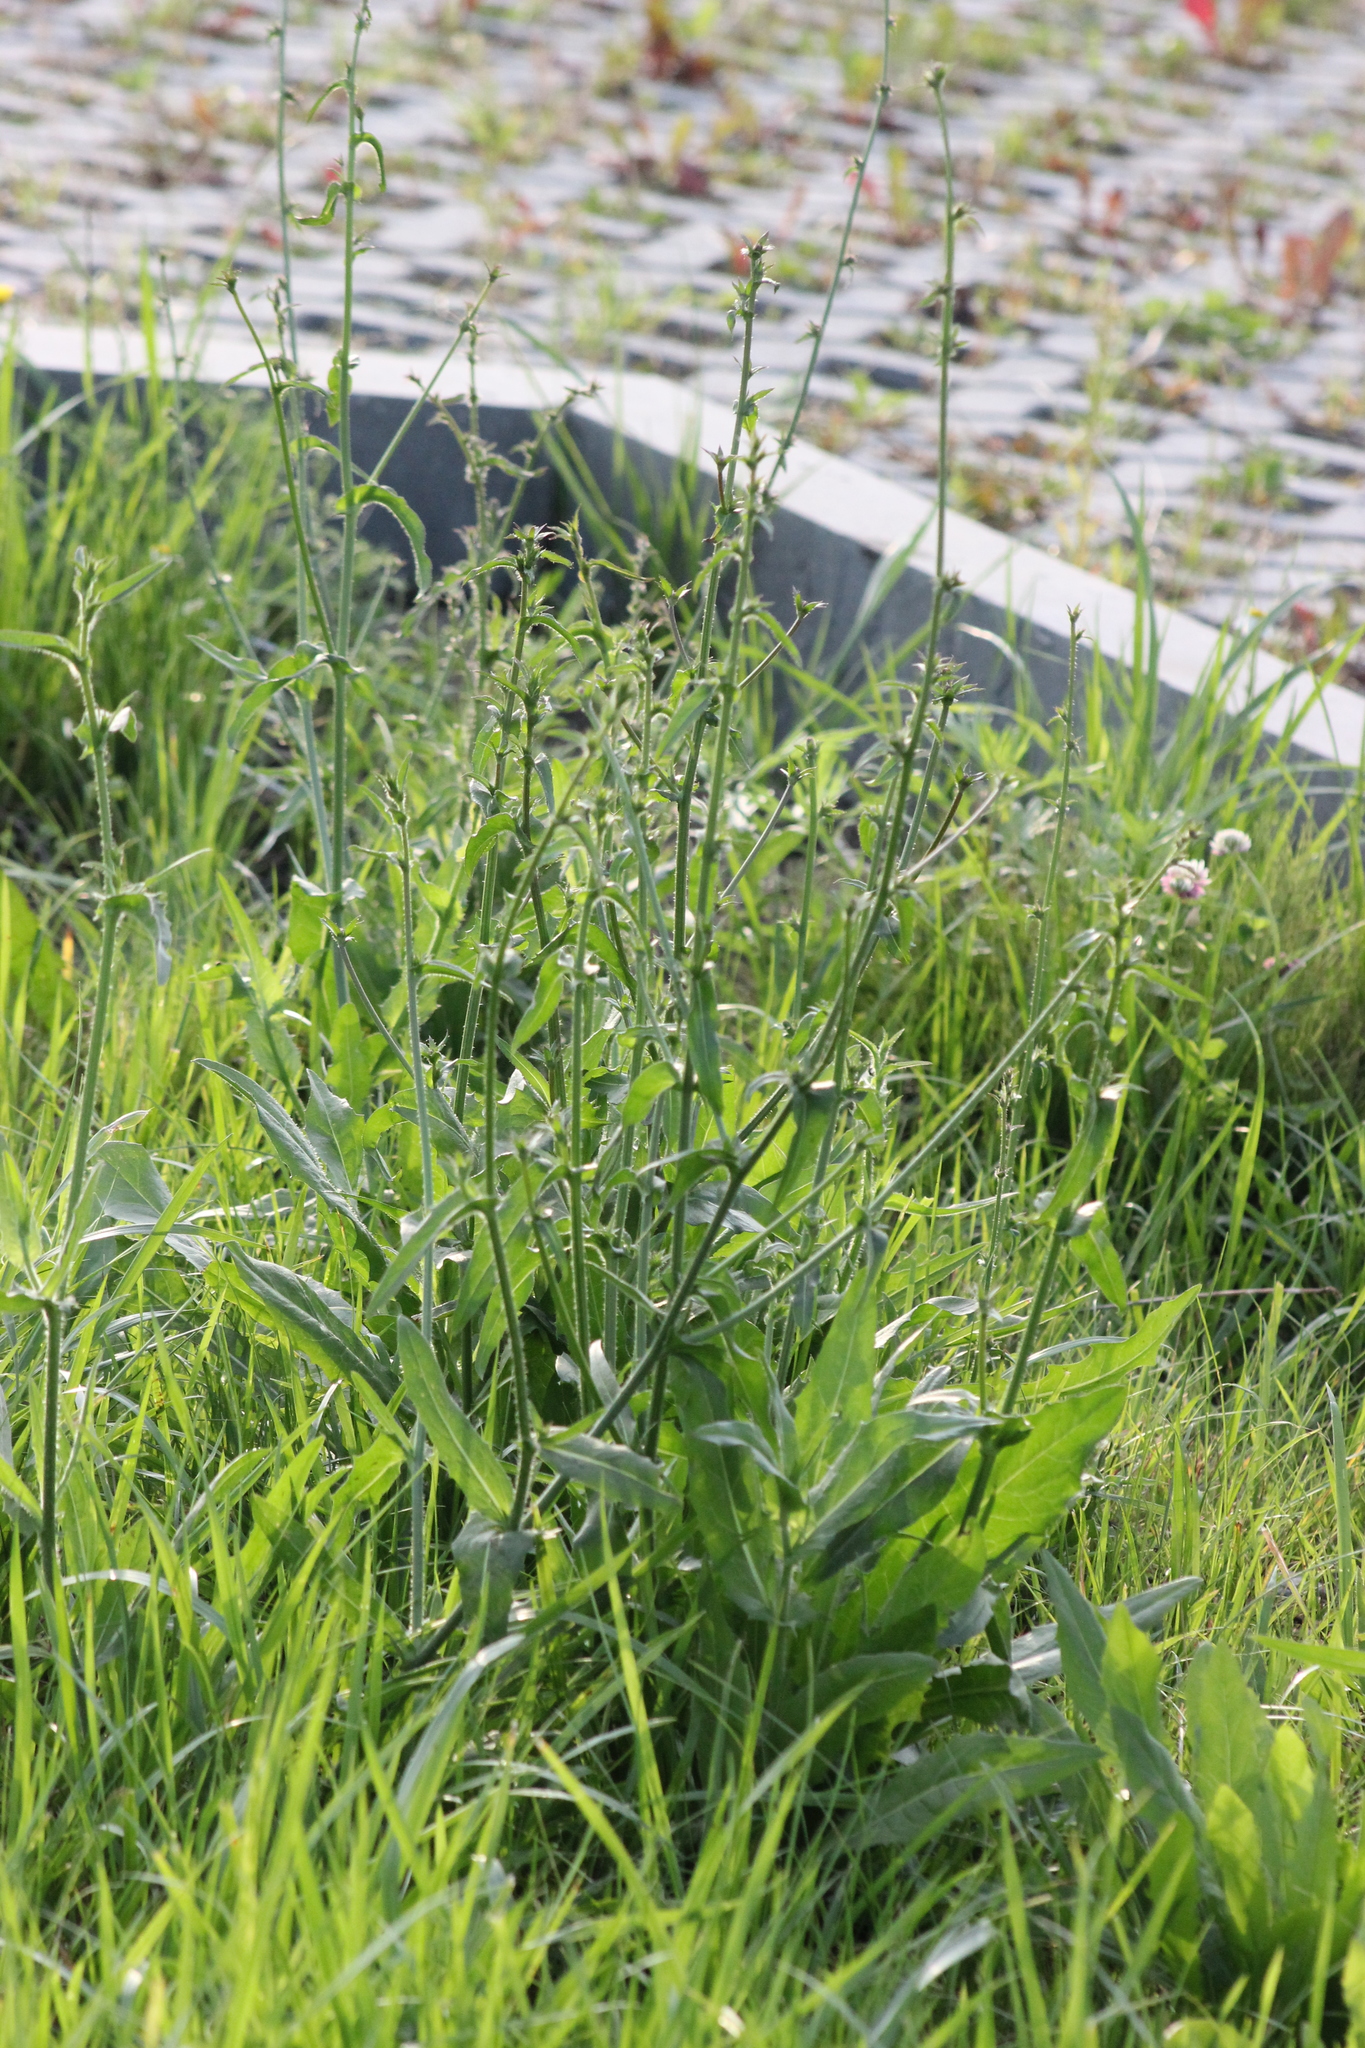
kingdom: Plantae
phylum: Tracheophyta
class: Magnoliopsida
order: Asterales
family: Asteraceae
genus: Cichorium
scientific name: Cichorium intybus
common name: Chicory
